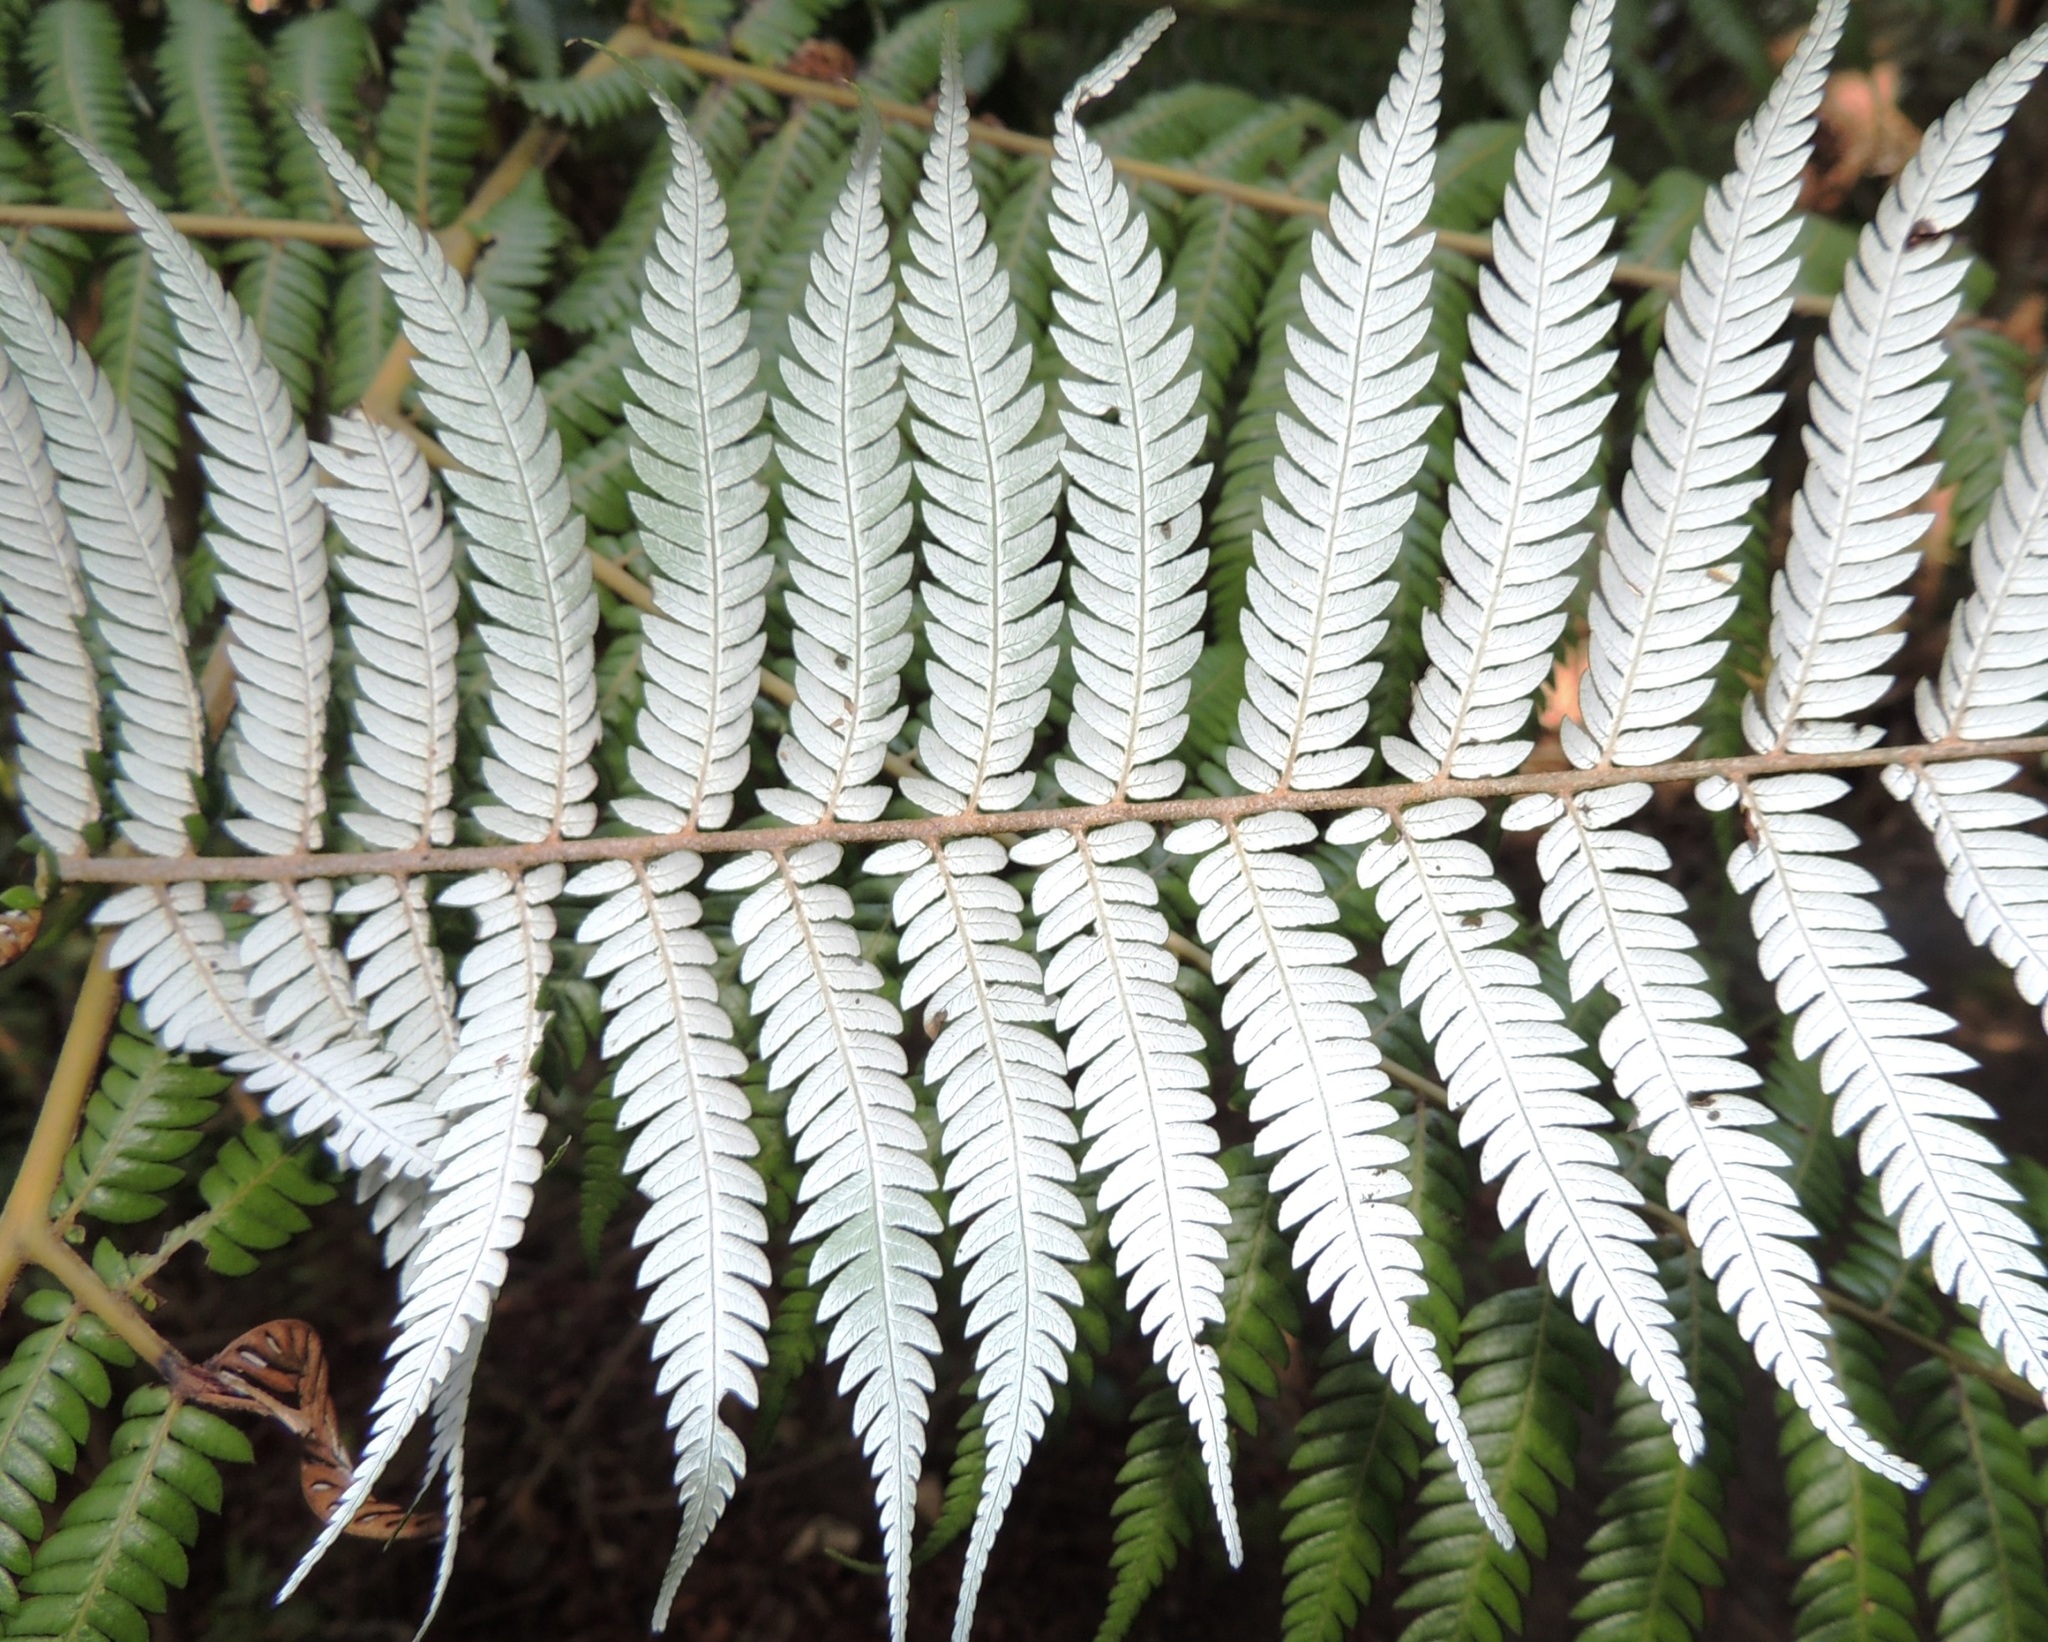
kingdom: Plantae
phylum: Tracheophyta
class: Polypodiopsida
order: Cyatheales
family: Cyatheaceae
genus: Alsophila
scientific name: Alsophila dealbata
